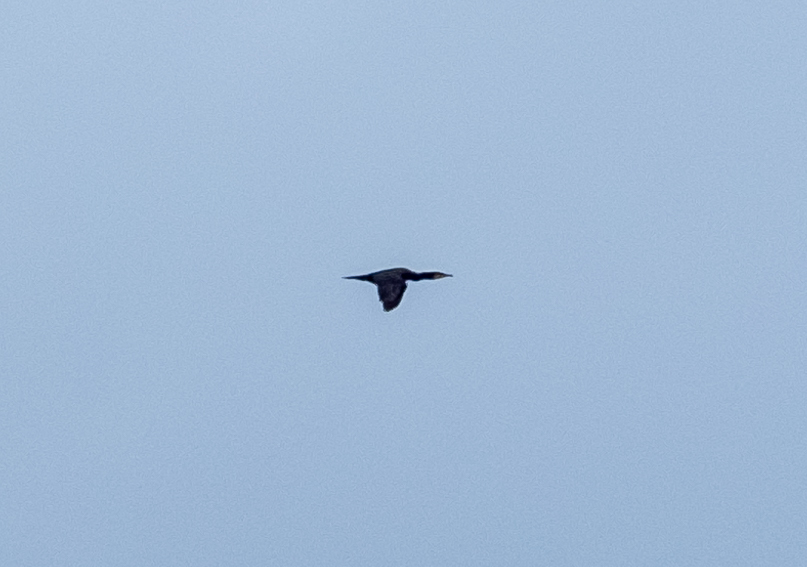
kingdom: Animalia
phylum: Chordata
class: Aves
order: Suliformes
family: Phalacrocoracidae
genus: Phalacrocorax
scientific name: Phalacrocorax carbo
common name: Great cormorant
